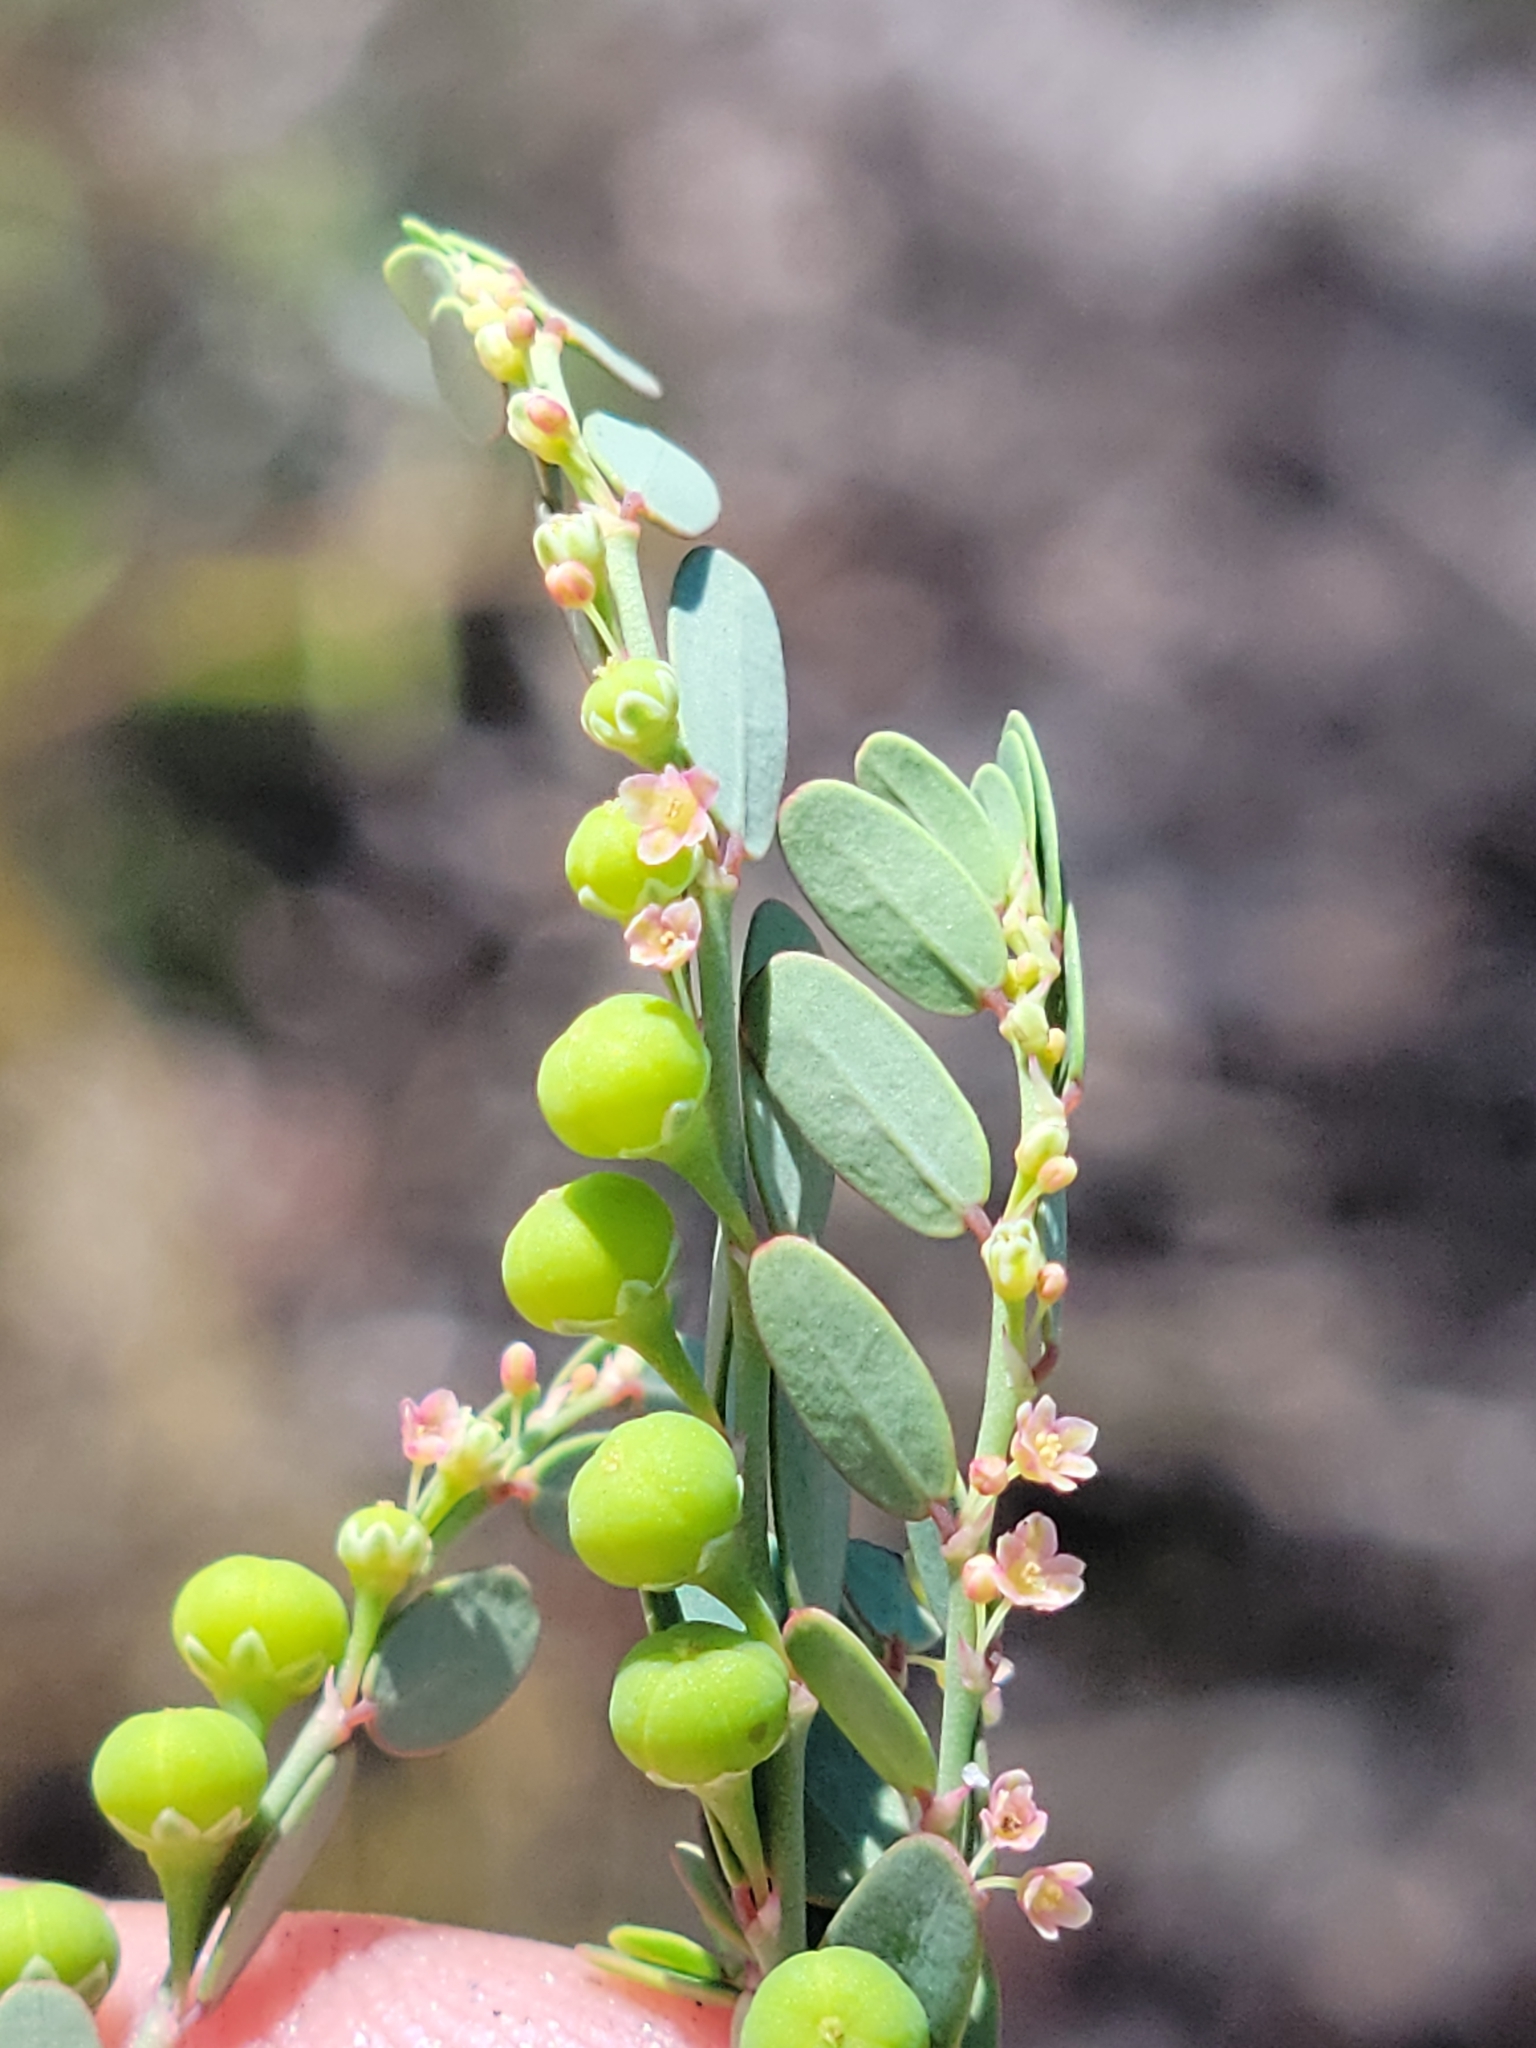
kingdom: Plantae
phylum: Tracheophyta
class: Magnoliopsida
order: Malpighiales
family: Phyllanthaceae
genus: Phyllanthus
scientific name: Phyllanthus abnormis
